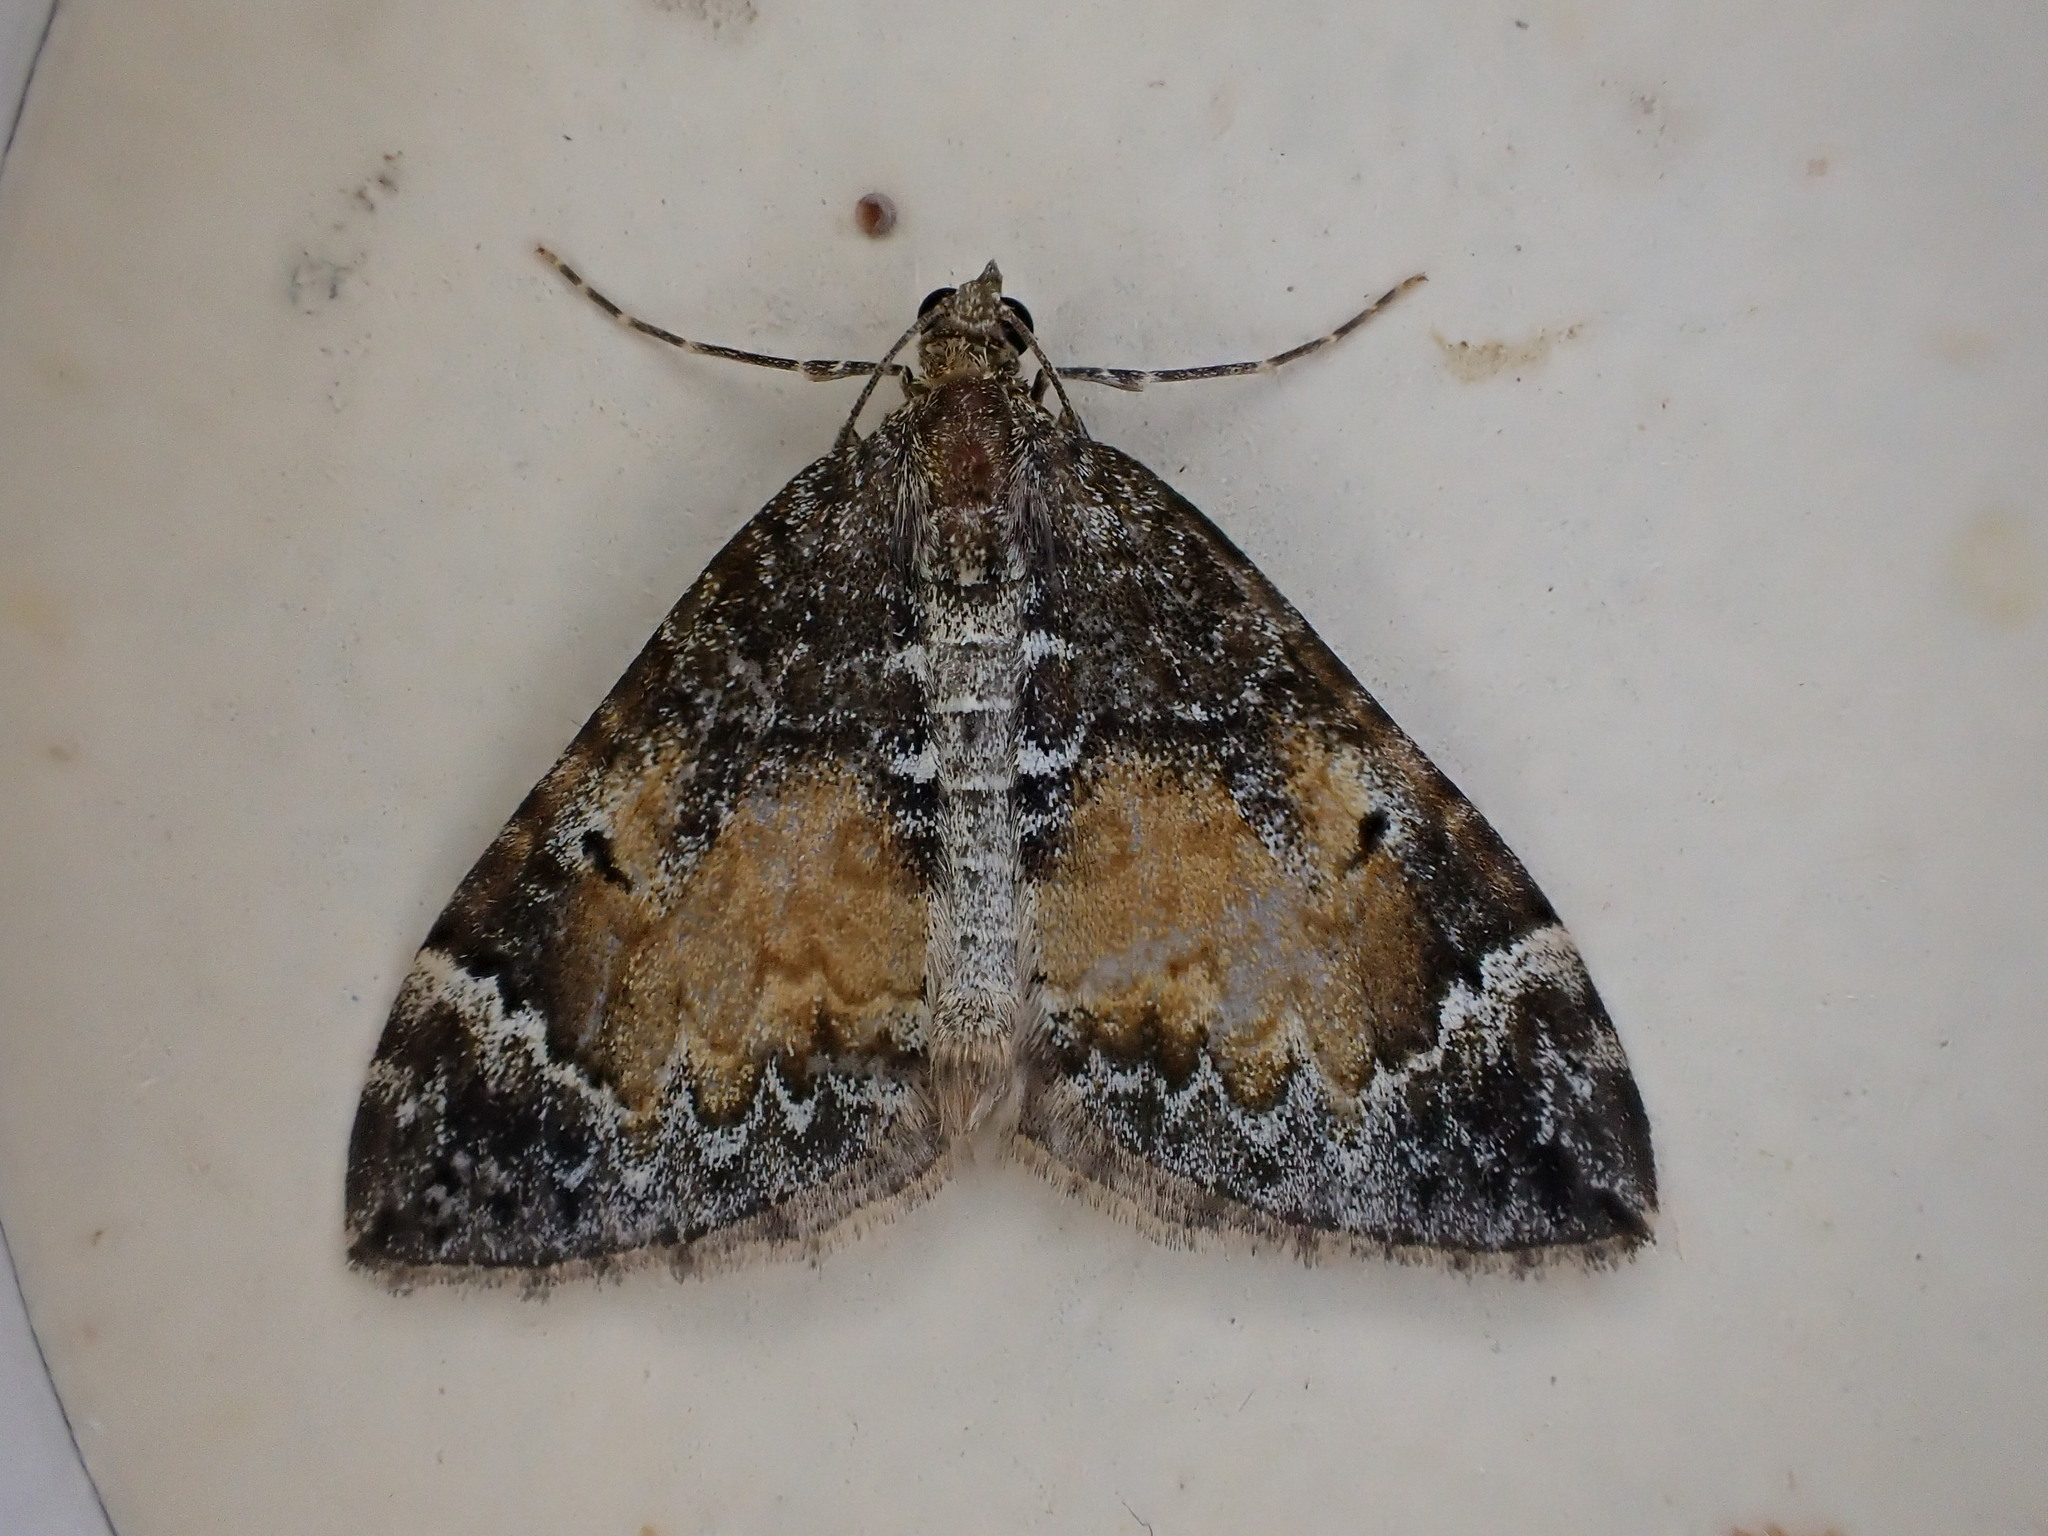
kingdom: Animalia
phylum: Arthropoda
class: Insecta
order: Lepidoptera
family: Geometridae
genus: Dysstroma
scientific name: Dysstroma truncata
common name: Common marbled carpet
